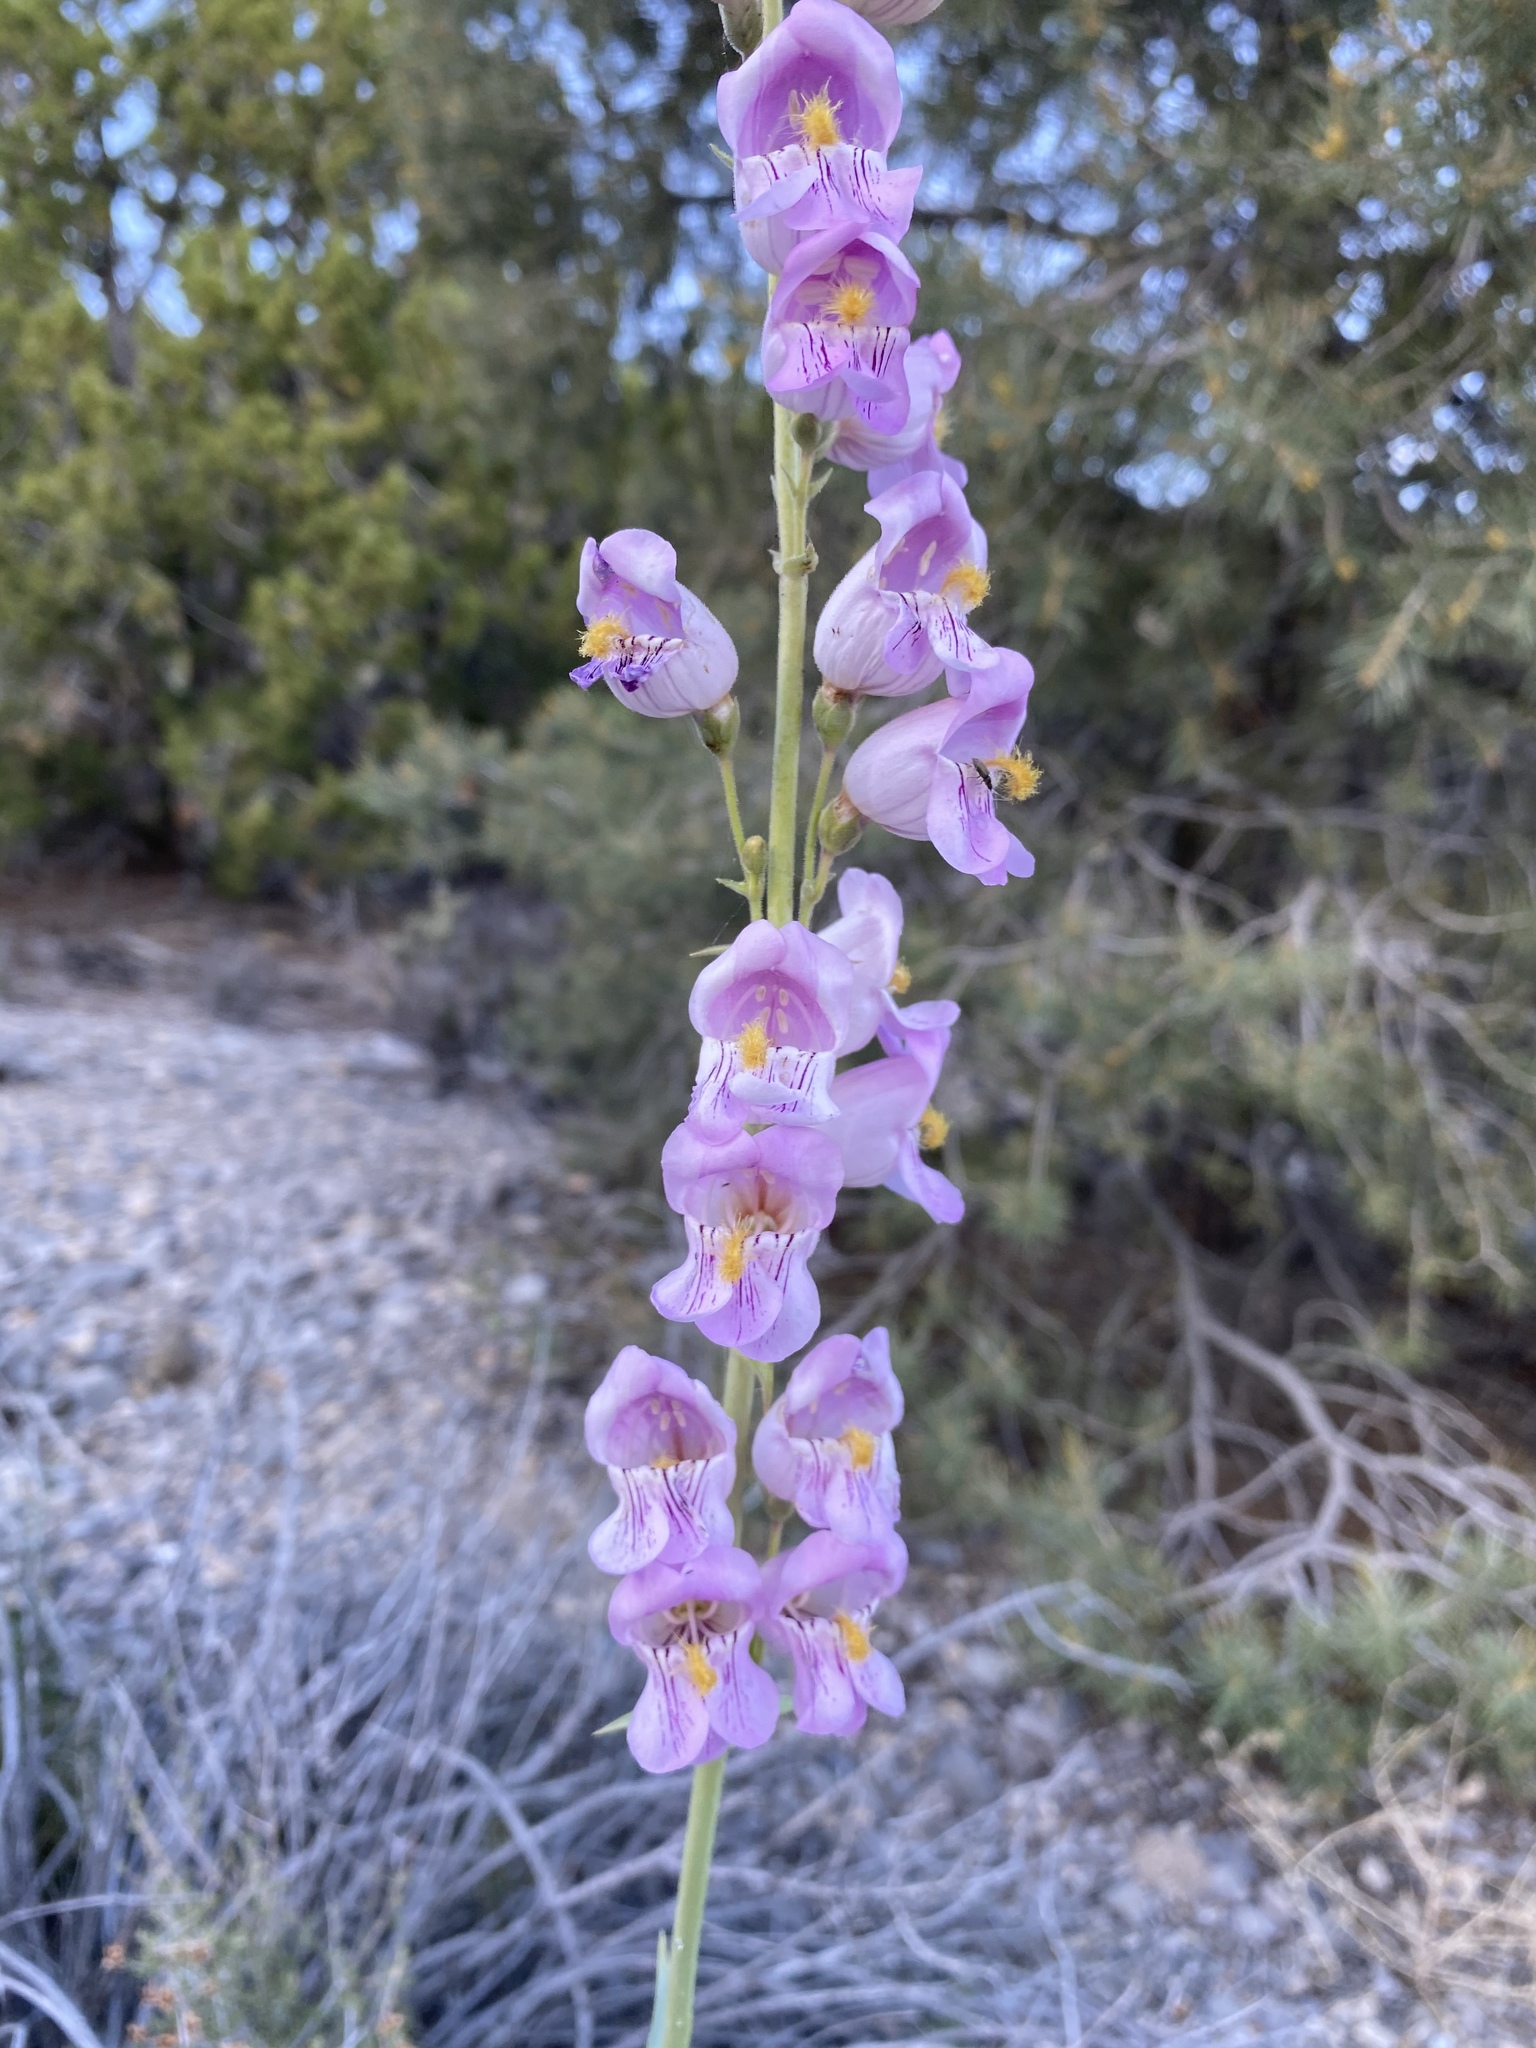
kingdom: Plantae
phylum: Tracheophyta
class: Magnoliopsida
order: Lamiales
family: Plantaginaceae
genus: Penstemon
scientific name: Penstemon palmeri
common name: Palmer penstemon
